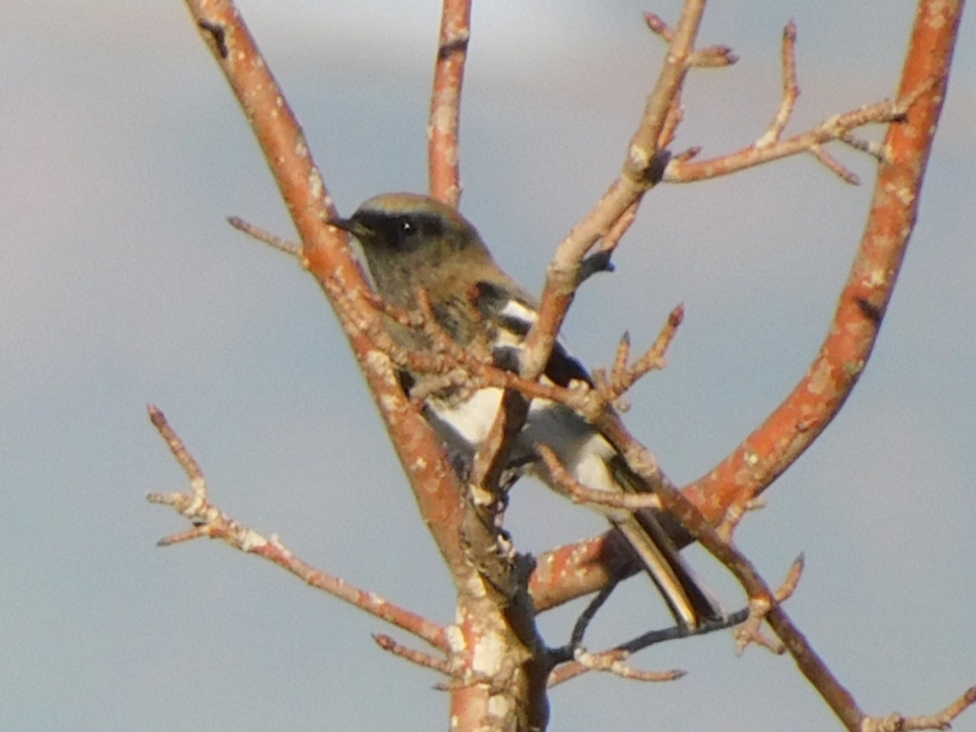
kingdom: Animalia
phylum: Chordata
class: Aves
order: Passeriformes
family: Muscicapidae
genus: Phoenicurus
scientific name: Phoenicurus coeruleocephala
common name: Blue-capped redstart
